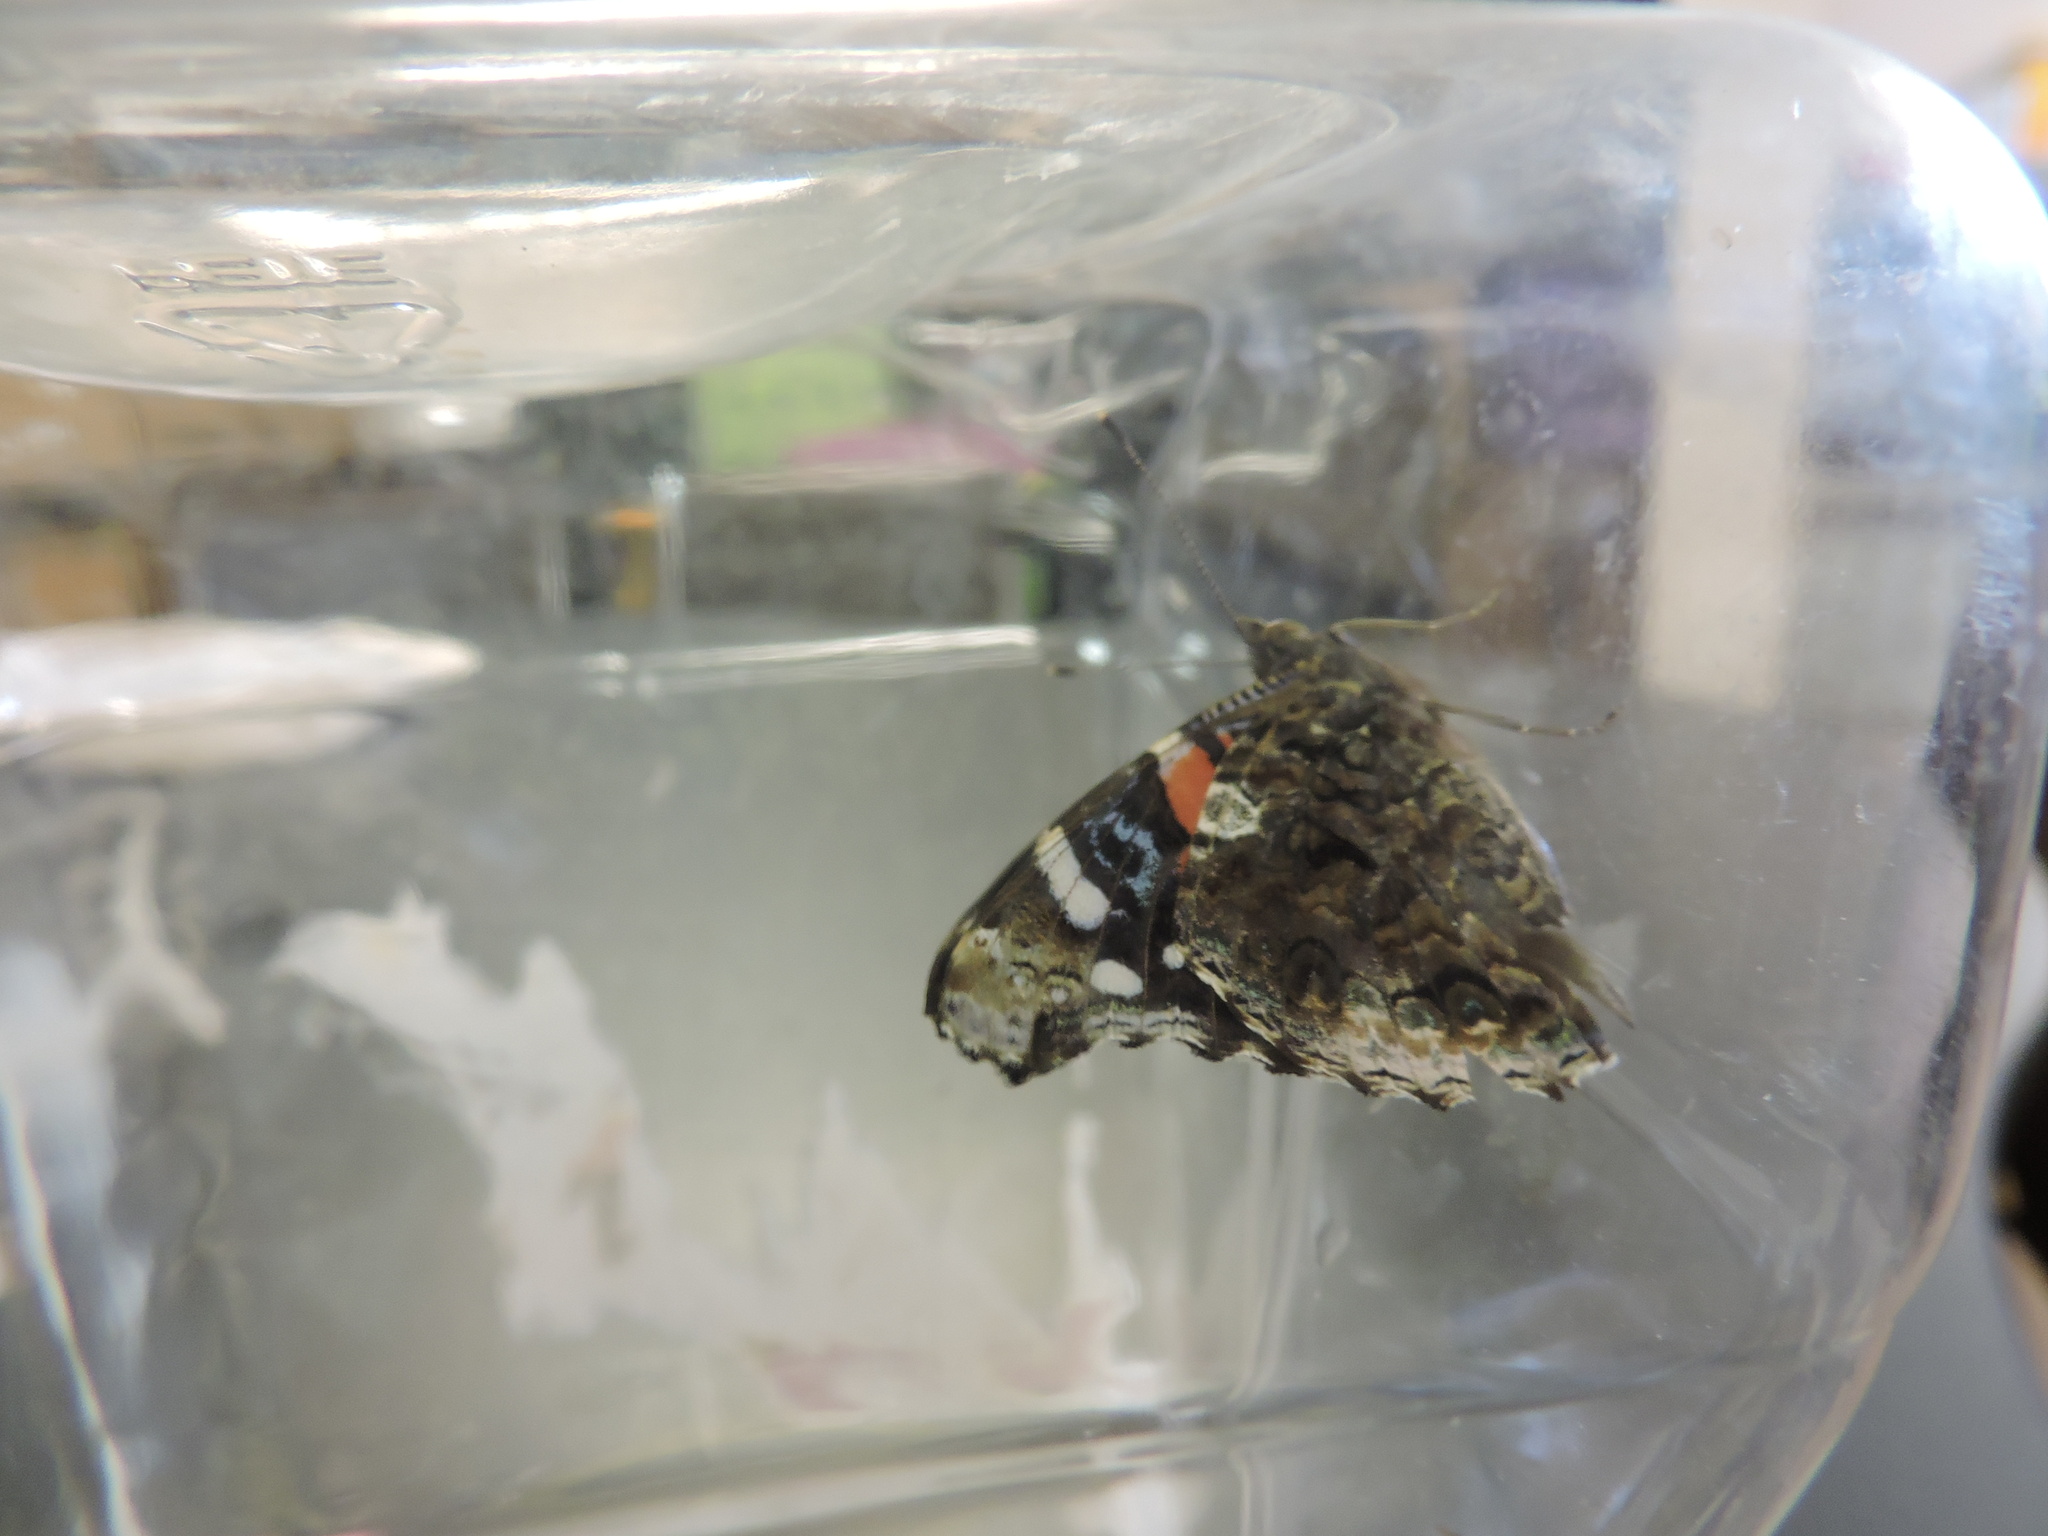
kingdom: Animalia
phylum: Arthropoda
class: Insecta
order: Lepidoptera
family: Nymphalidae
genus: Vanessa
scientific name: Vanessa atalanta
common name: Red admiral
